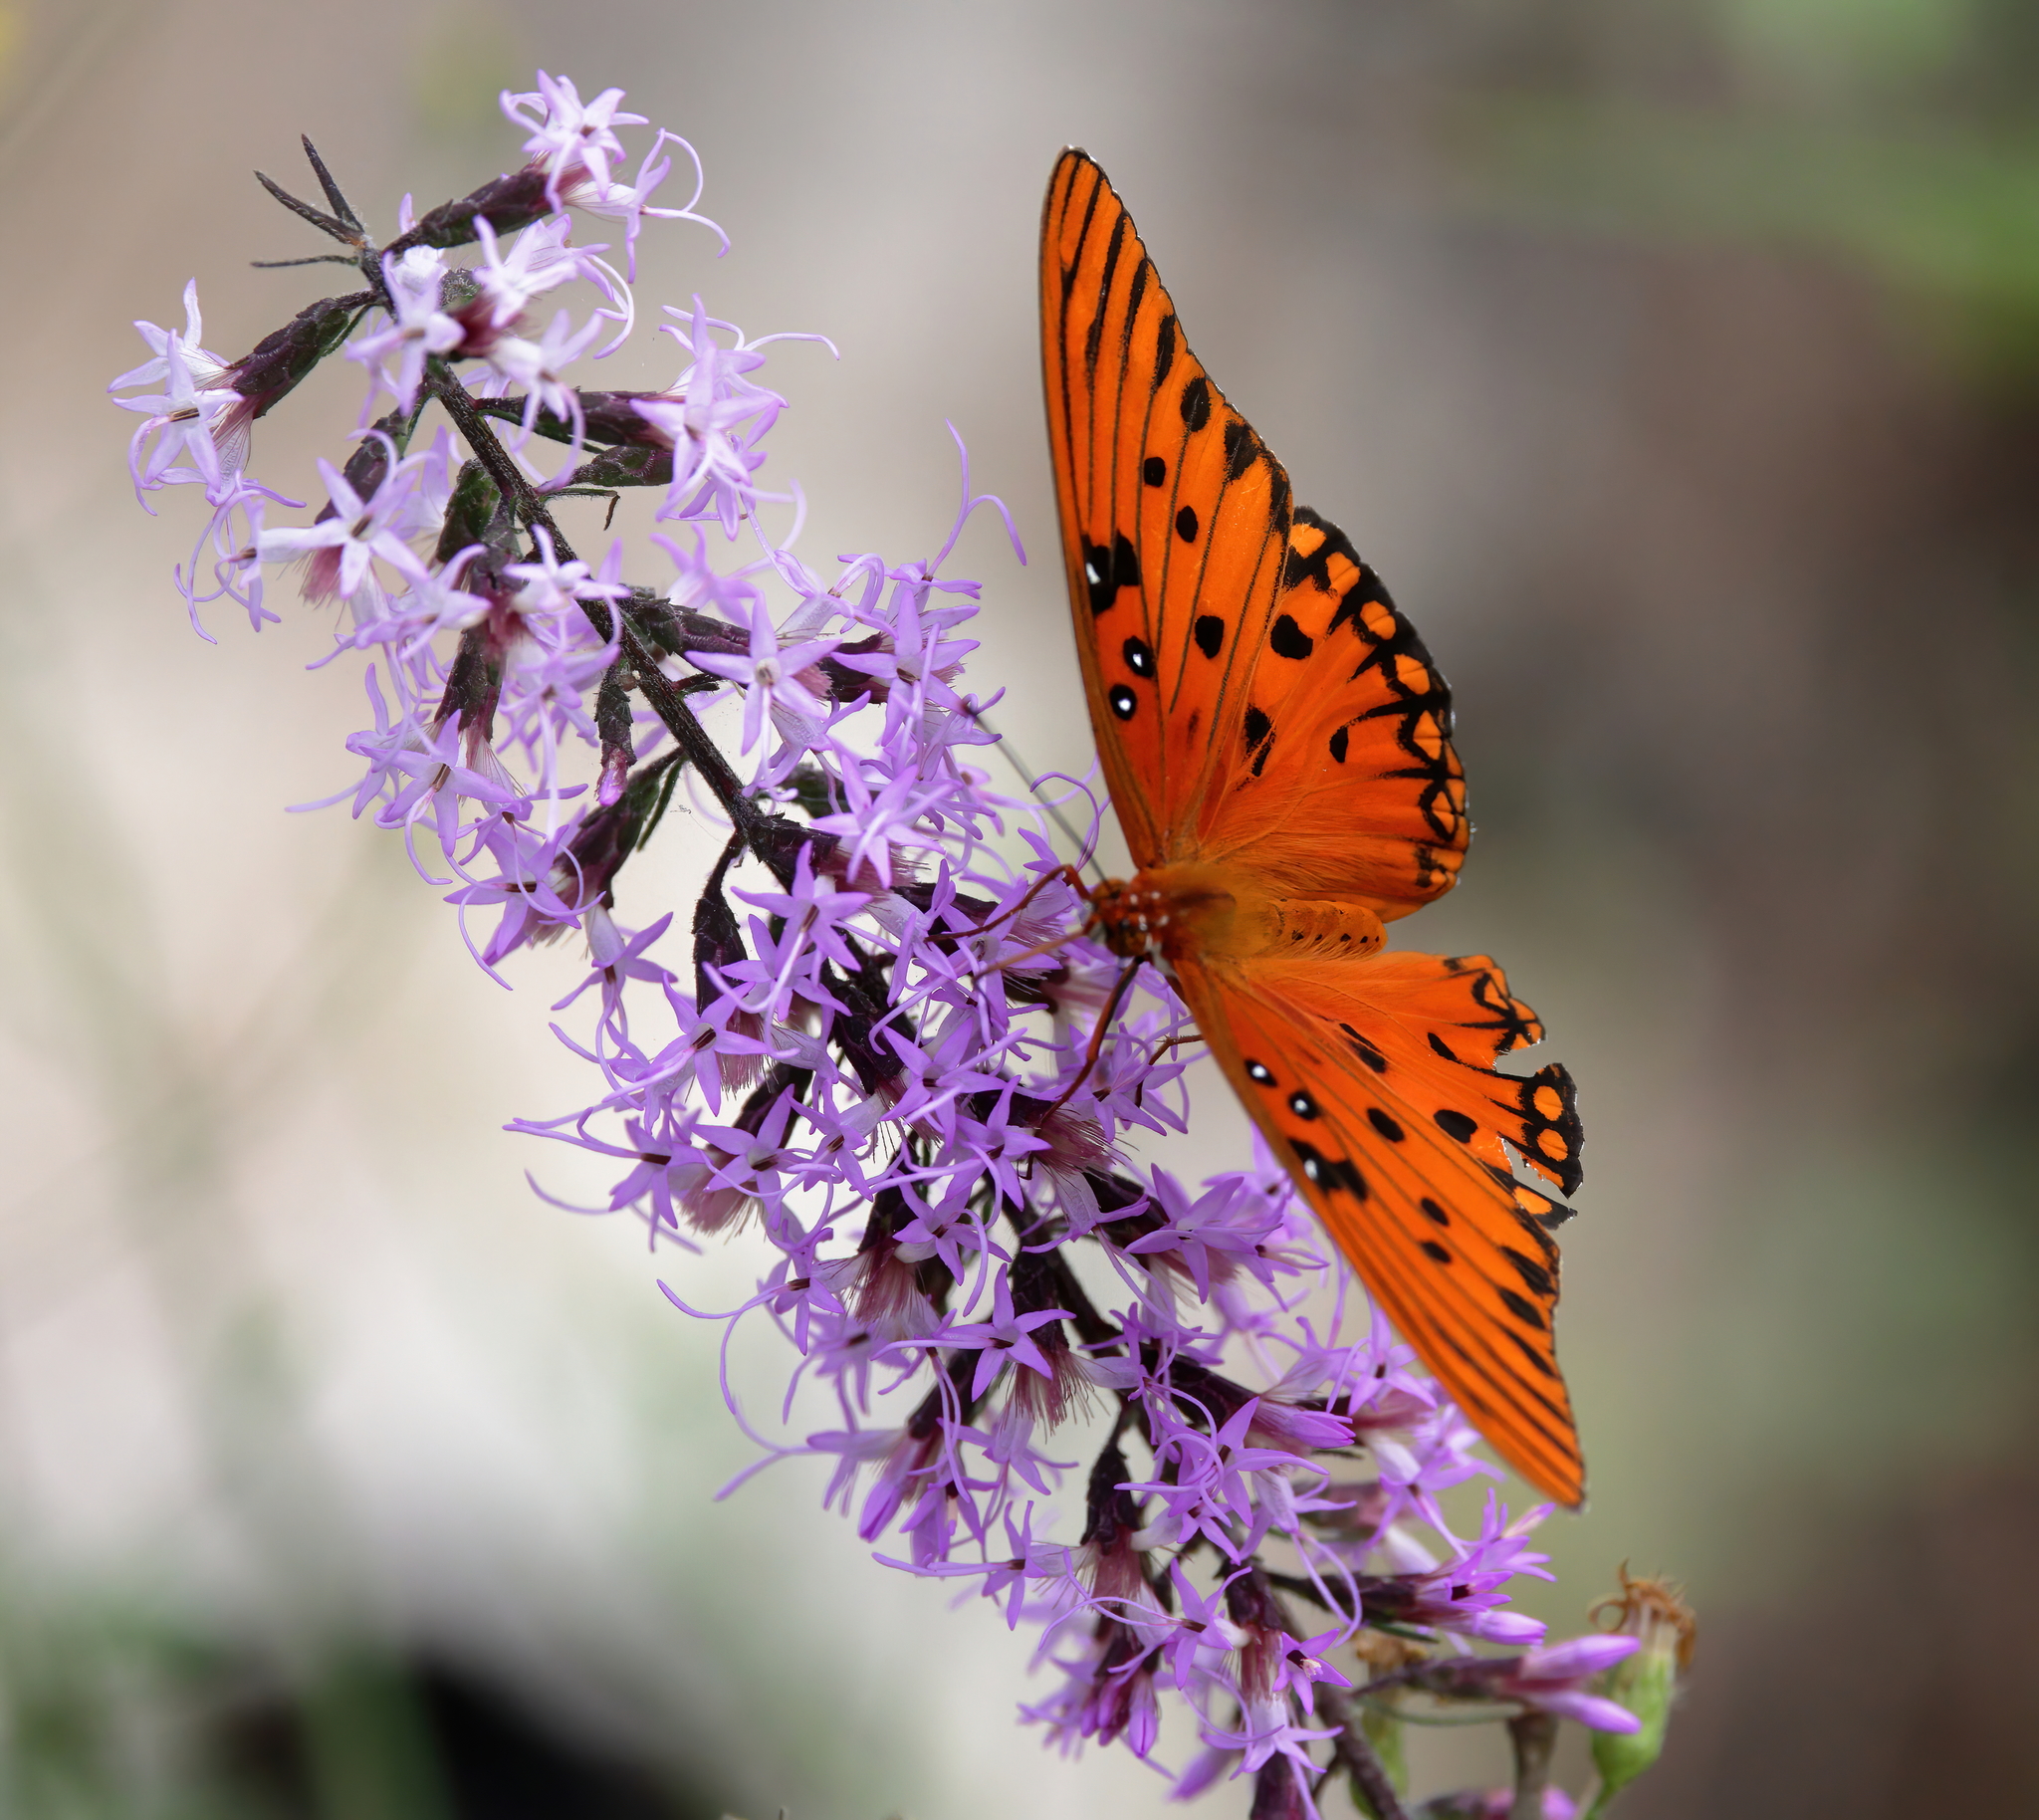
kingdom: Animalia
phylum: Arthropoda
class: Insecta
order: Lepidoptera
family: Nymphalidae
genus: Dione
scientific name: Dione vanillae
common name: Gulf fritillary
